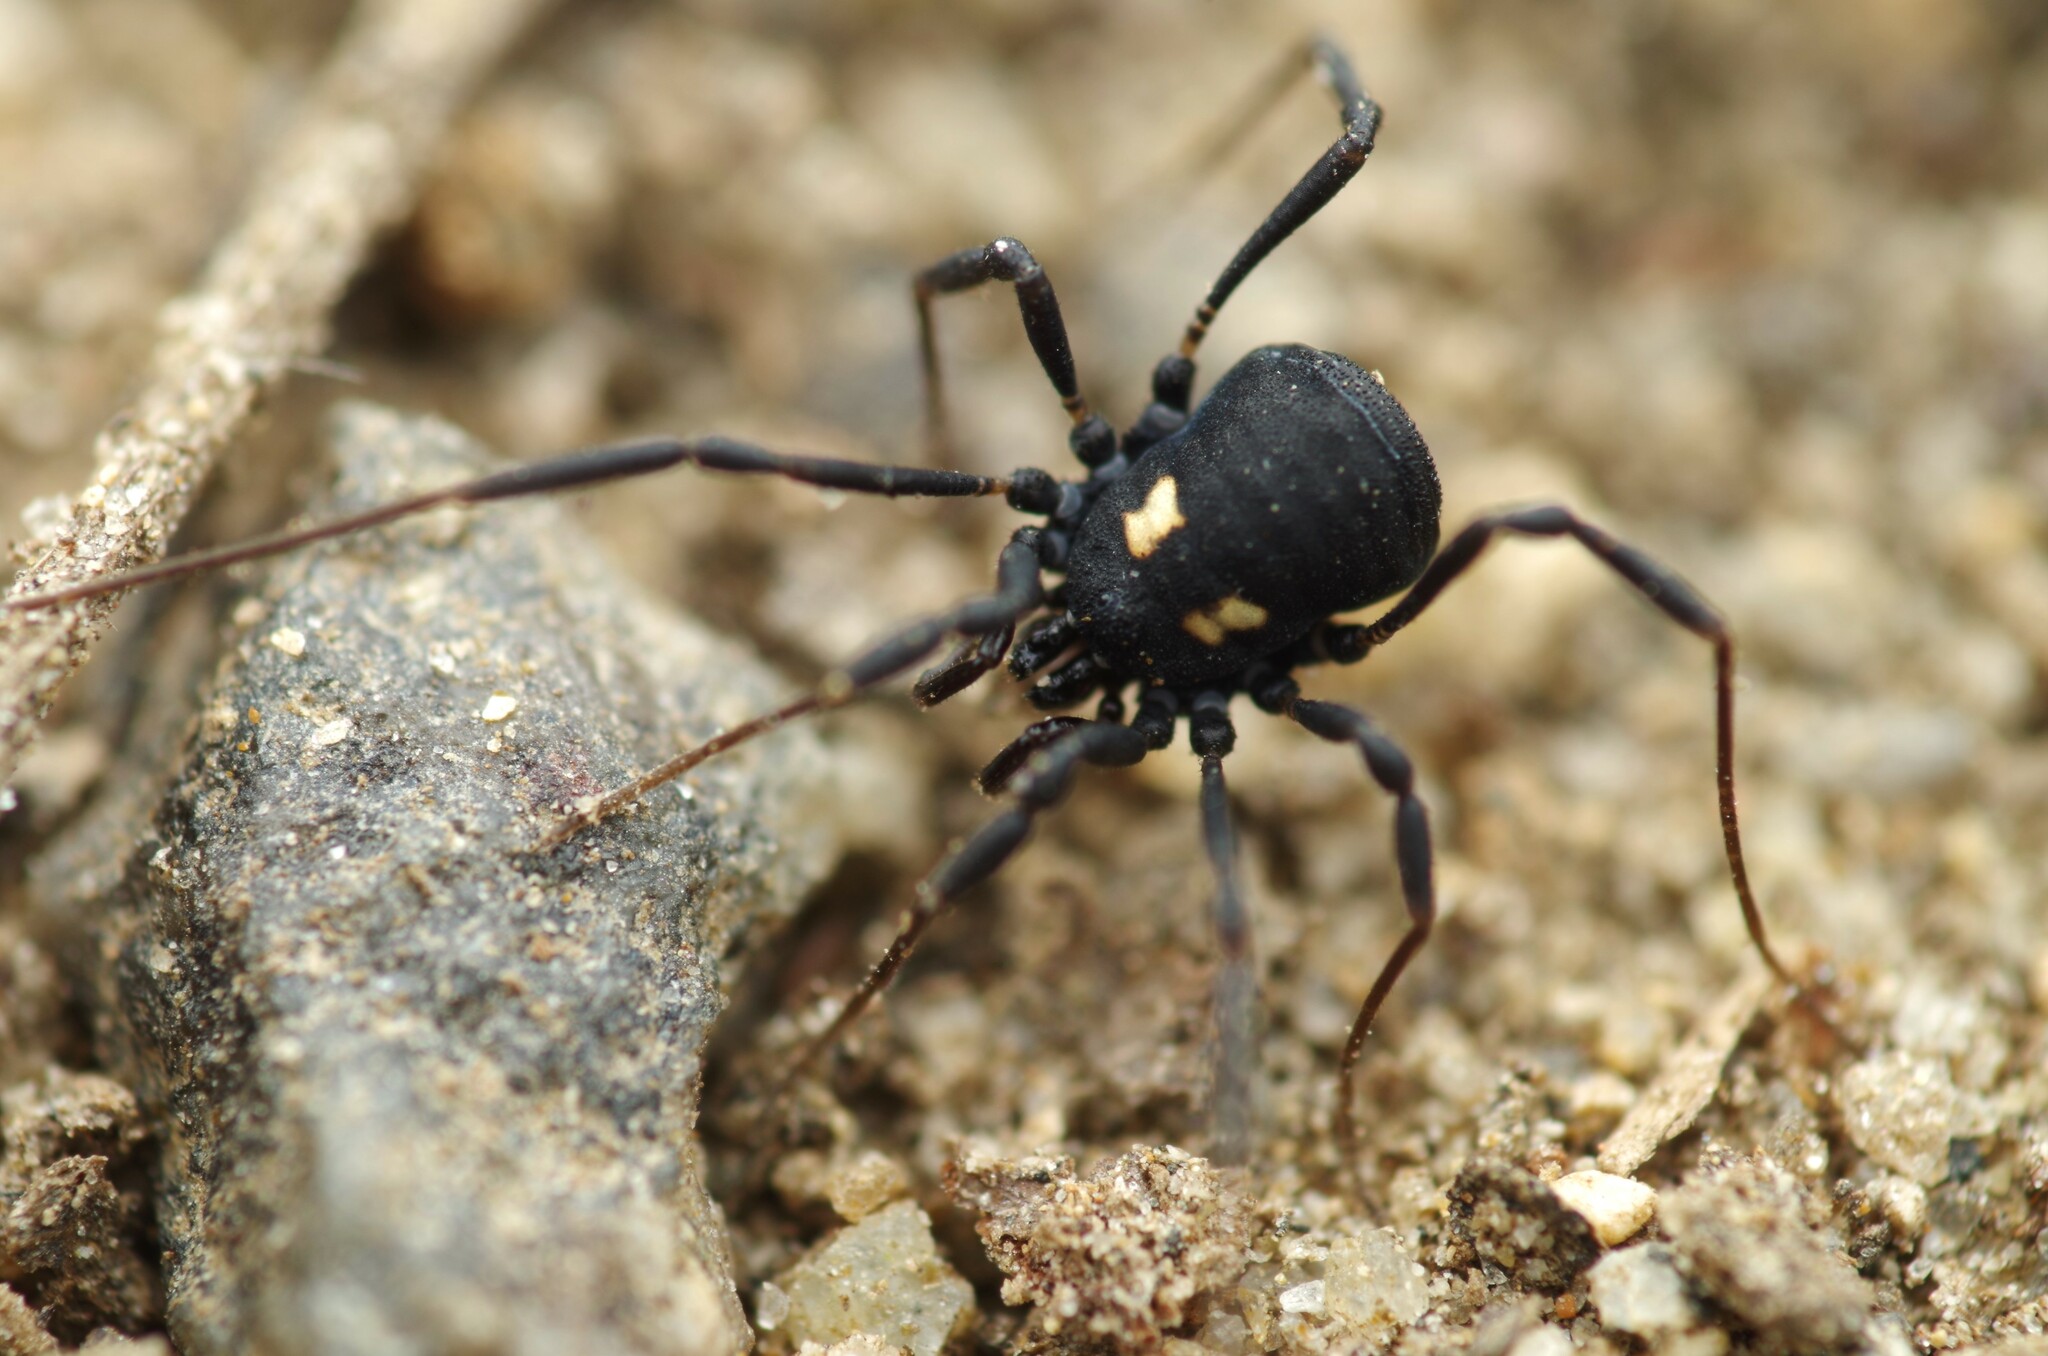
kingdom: Animalia
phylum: Arthropoda
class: Arachnida
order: Opiliones
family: Nemastomatidae
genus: Nemastoma
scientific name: Nemastoma bimaculatum
